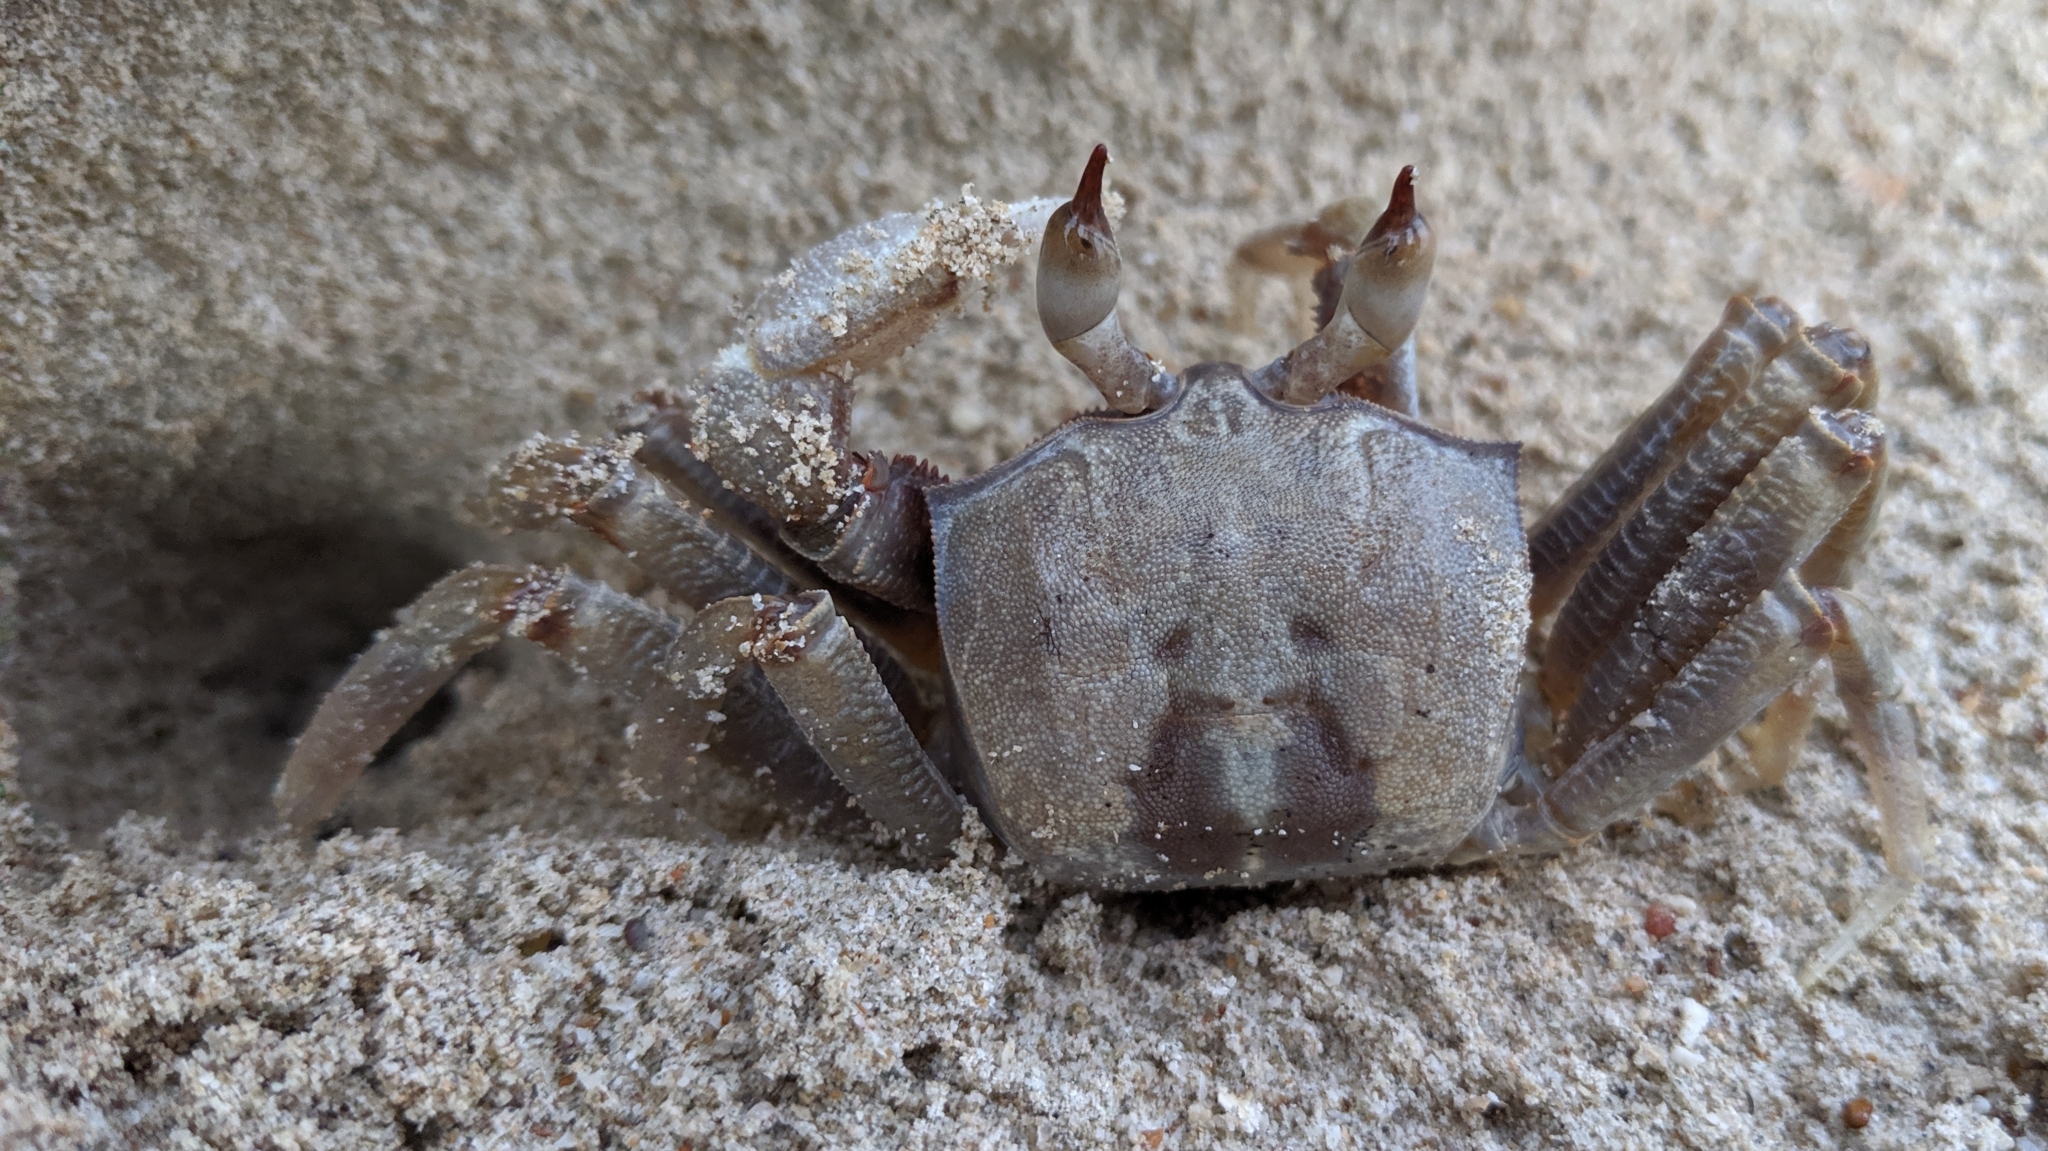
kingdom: Animalia
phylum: Arthropoda
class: Malacostraca
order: Decapoda
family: Ocypodidae
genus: Ocypode
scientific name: Ocypode ceratophthalmus
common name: Indo-pacific ghost crab
